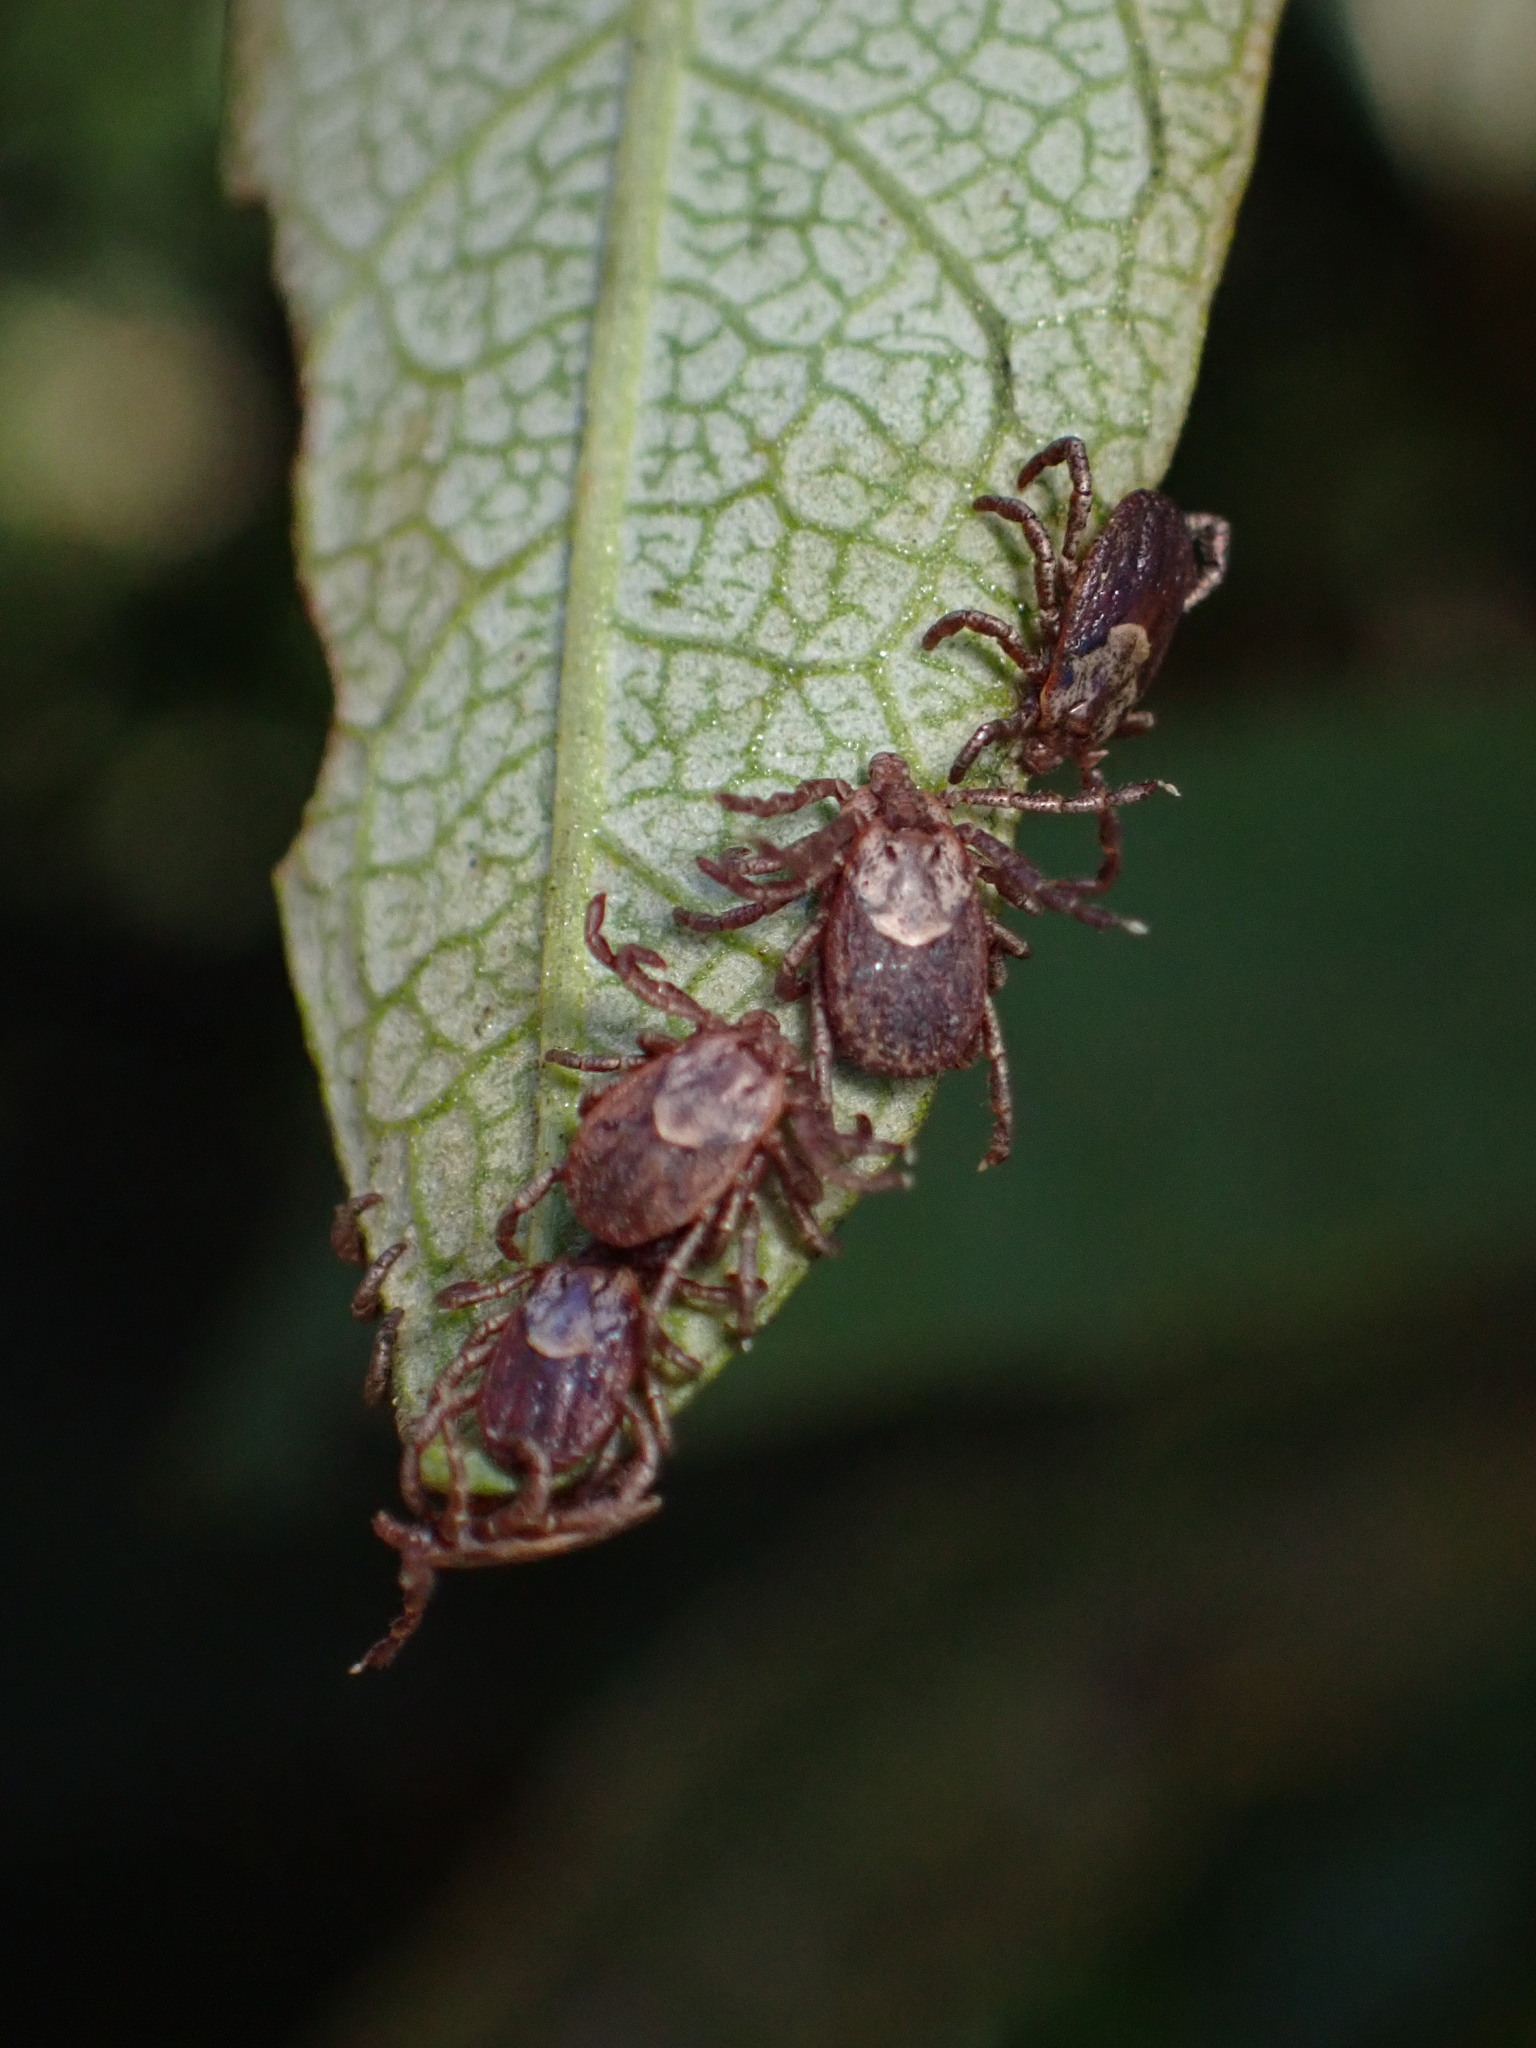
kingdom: Animalia
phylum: Arthropoda
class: Arachnida
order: Ixodida
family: Ixodidae
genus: Dermacentor
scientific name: Dermacentor occidentalis
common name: Net tick
